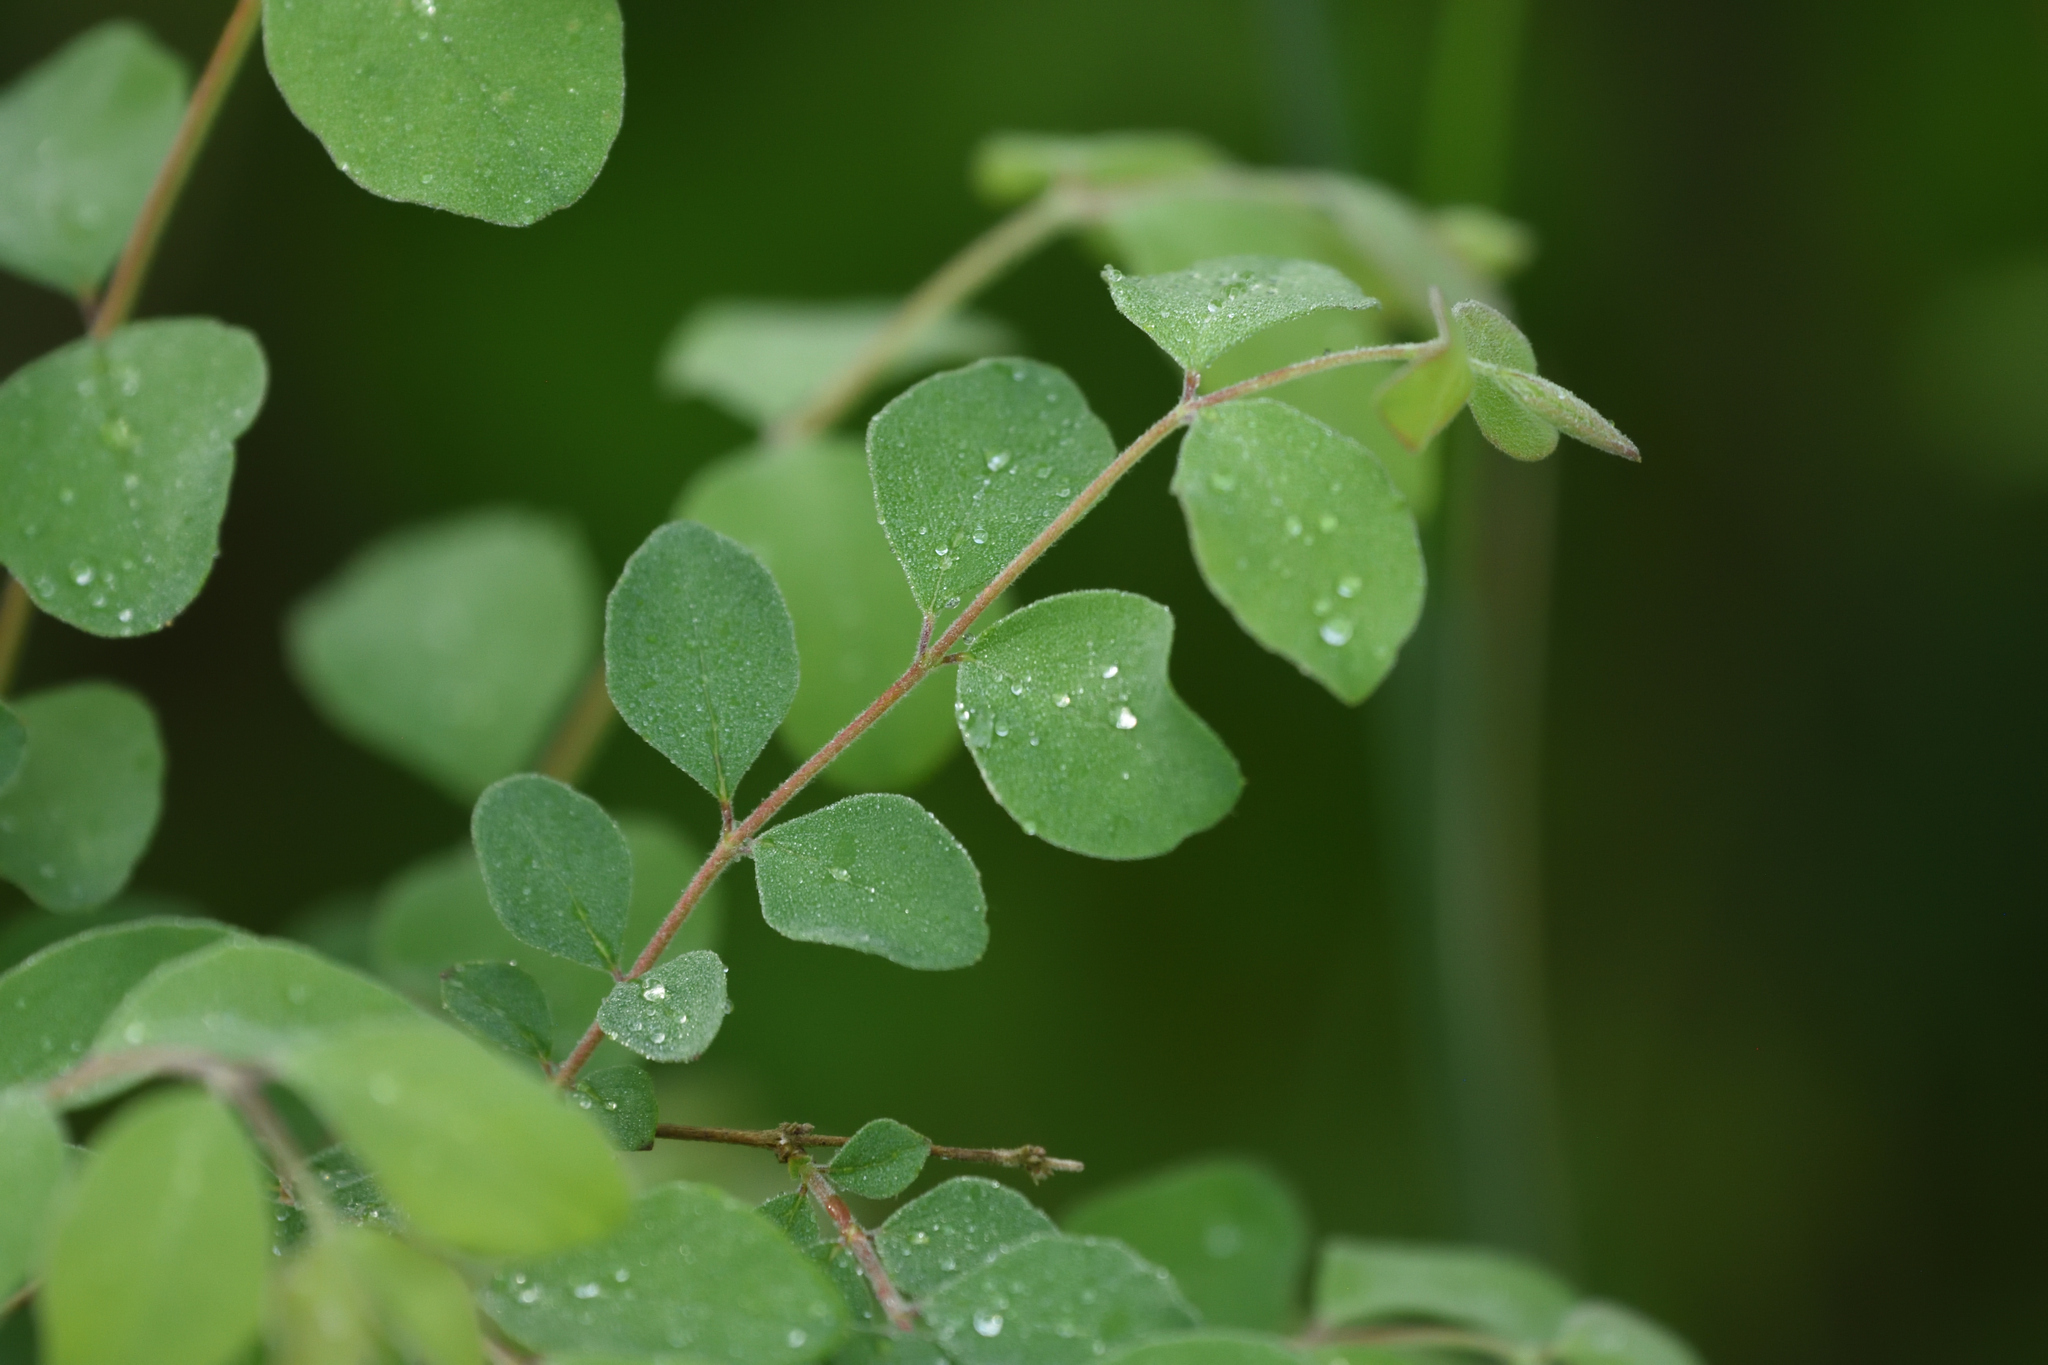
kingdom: Plantae
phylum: Tracheophyta
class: Magnoliopsida
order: Dipsacales
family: Caprifoliaceae
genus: Symphoricarpos
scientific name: Symphoricarpos orbiculatus
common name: Coralberry
